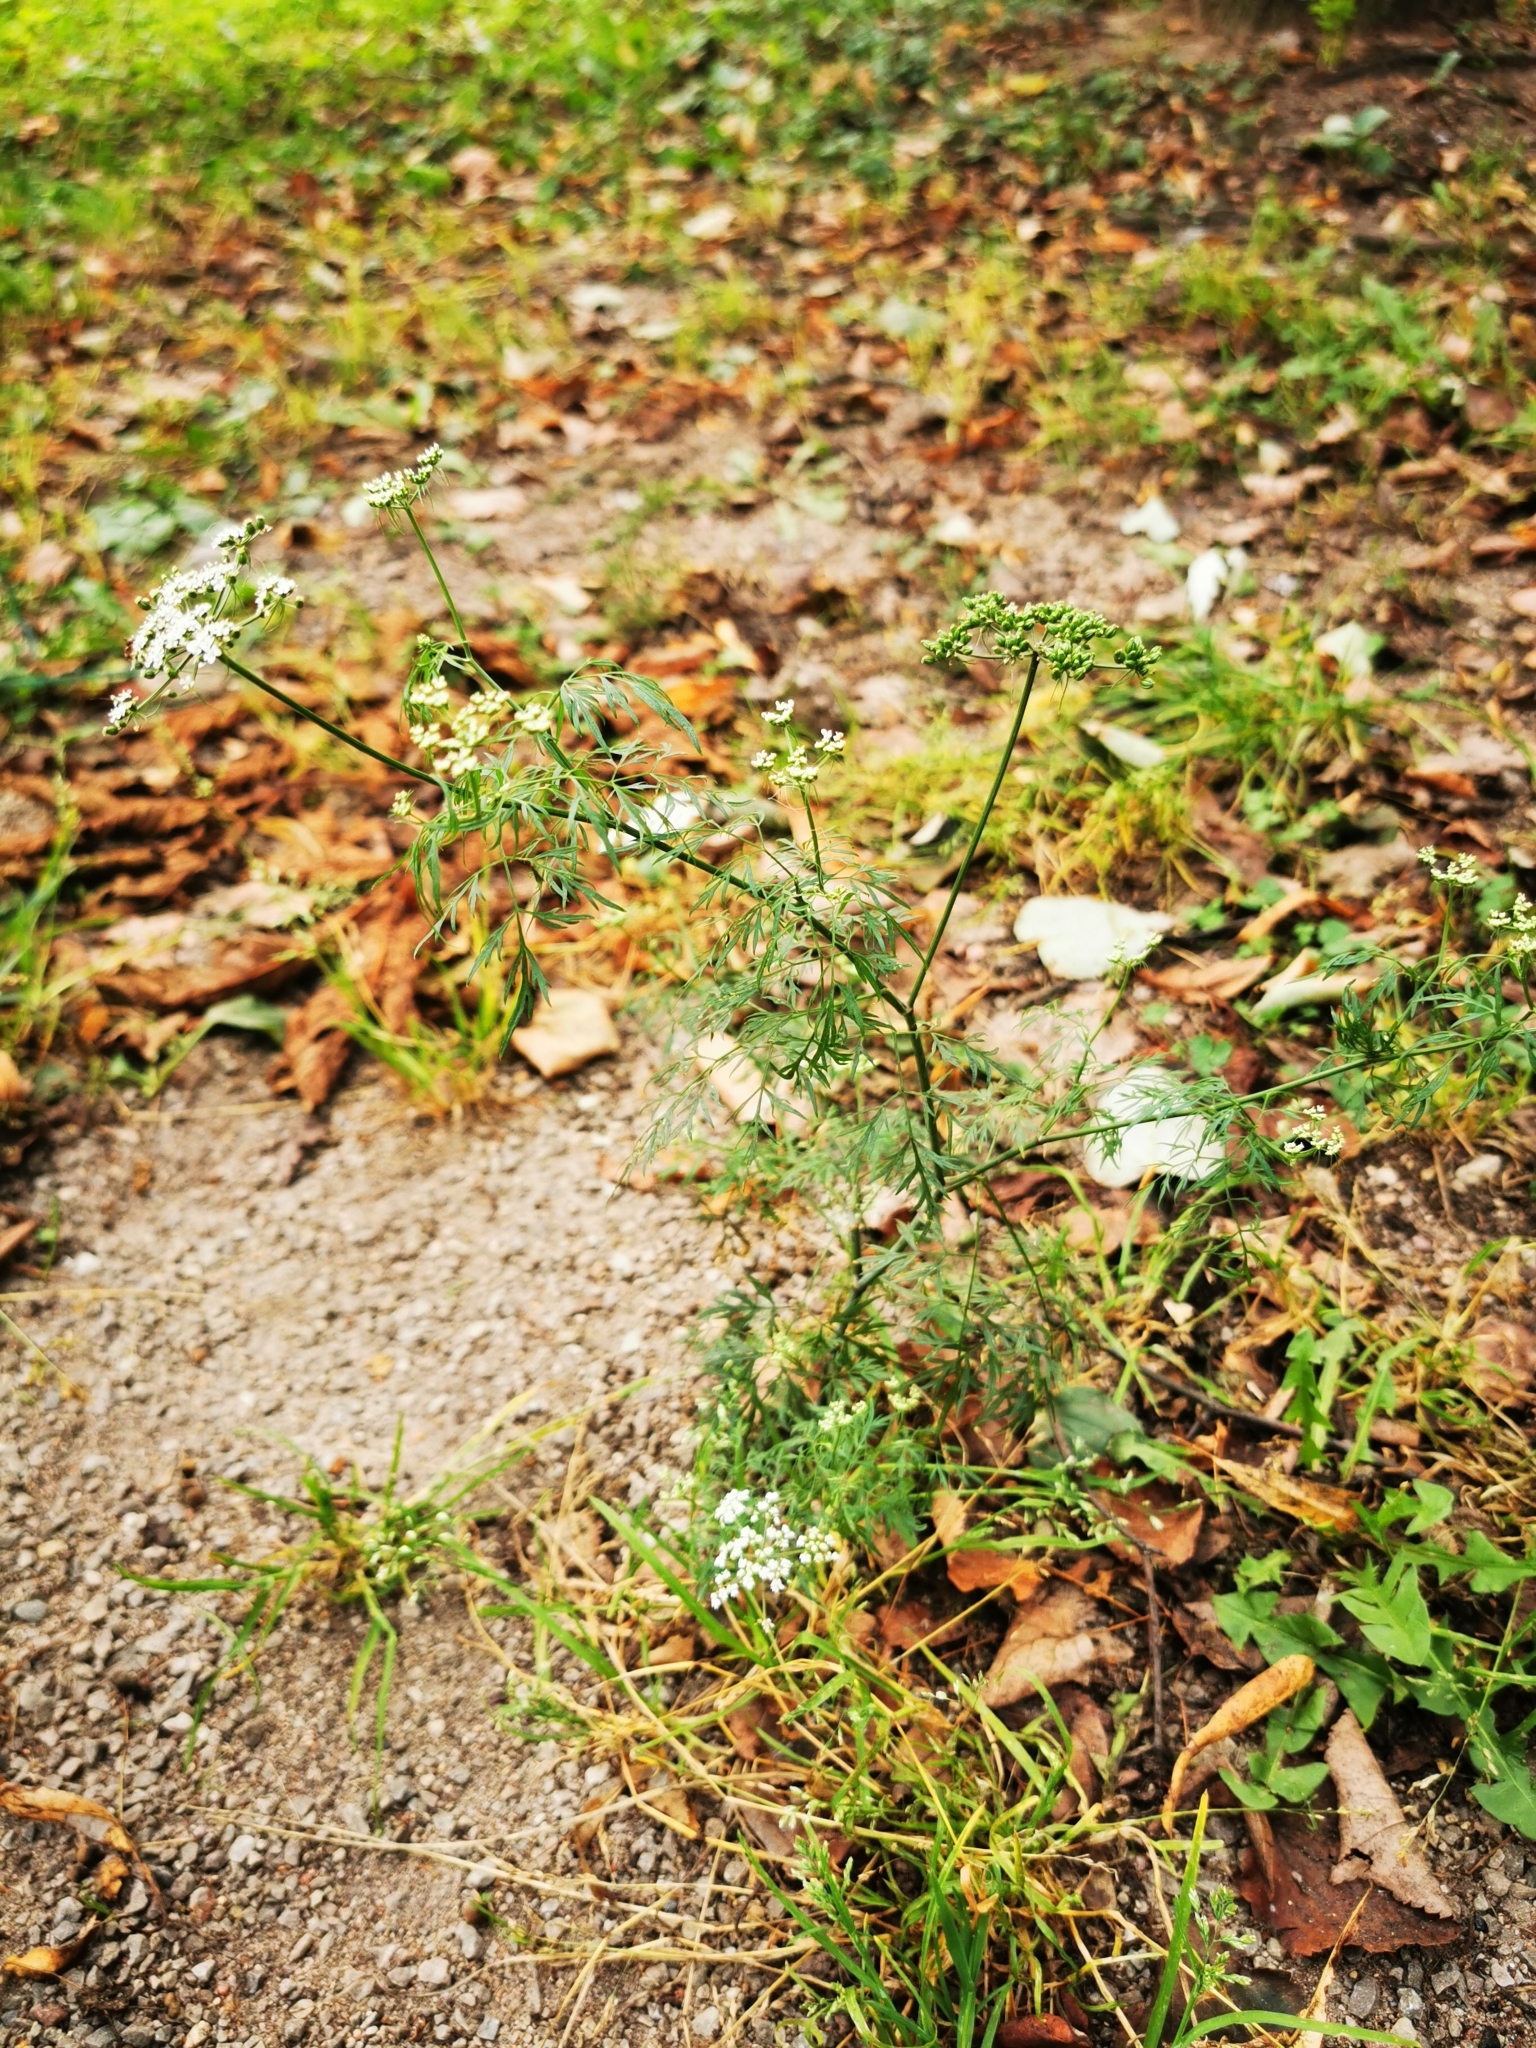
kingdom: Plantae
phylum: Tracheophyta
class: Magnoliopsida
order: Apiales
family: Apiaceae
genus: Aethusa
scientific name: Aethusa cynapium
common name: Fool's parsley
